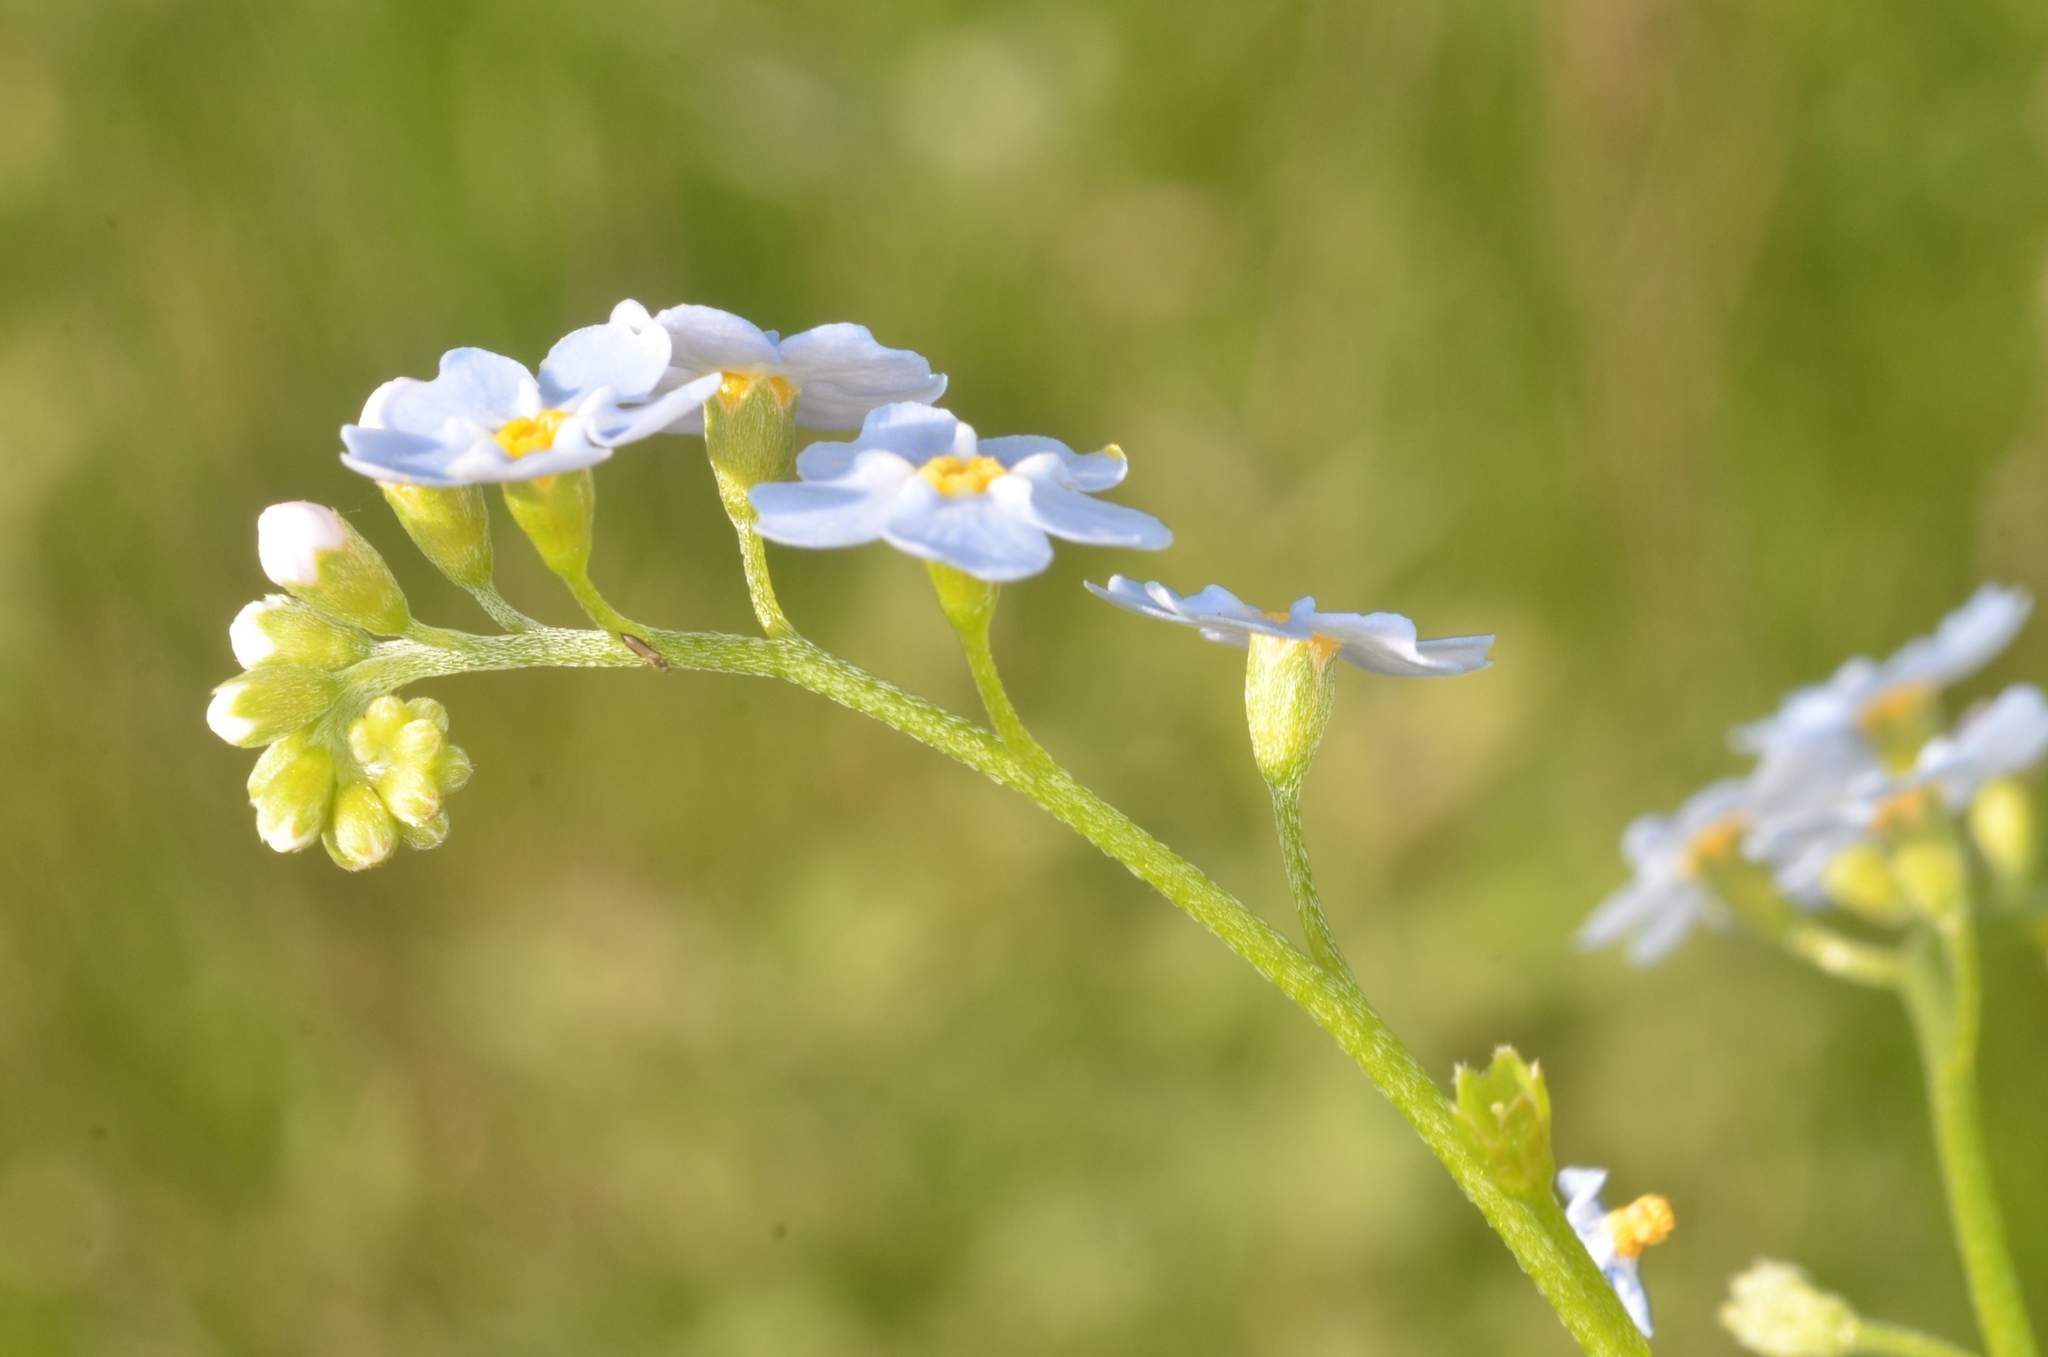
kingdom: Plantae
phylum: Tracheophyta
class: Magnoliopsida
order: Boraginales
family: Boraginaceae
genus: Myosotis
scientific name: Myosotis scorpioides
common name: Water forget-me-not
